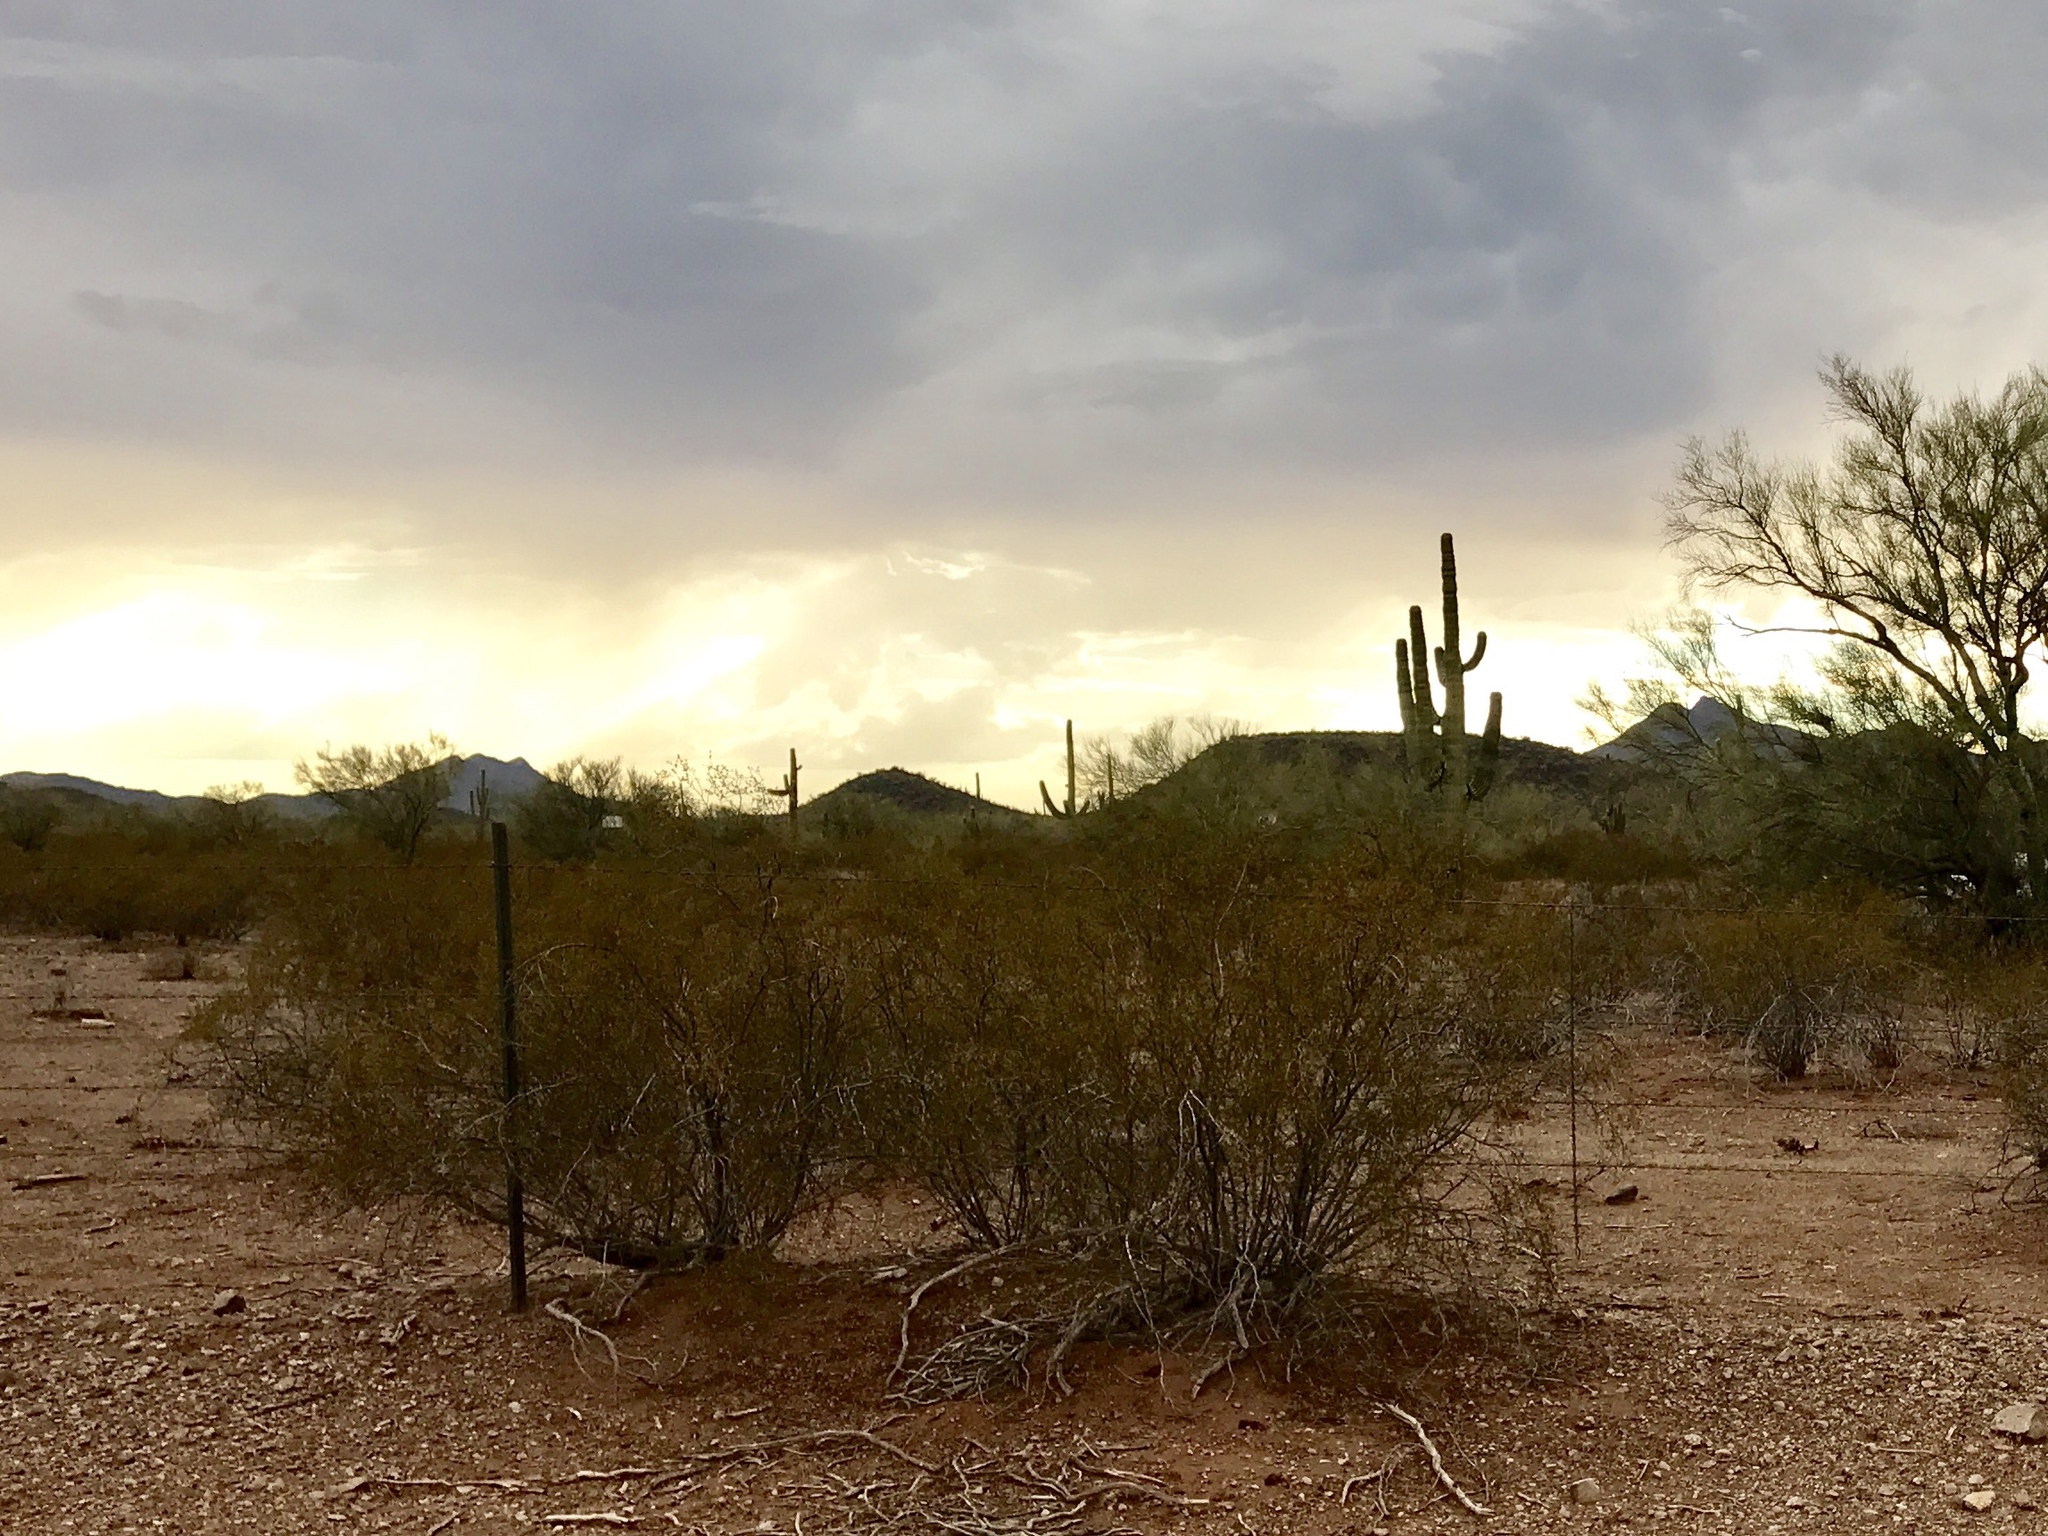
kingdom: Plantae
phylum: Tracheophyta
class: Magnoliopsida
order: Zygophyllales
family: Zygophyllaceae
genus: Larrea
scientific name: Larrea tridentata
